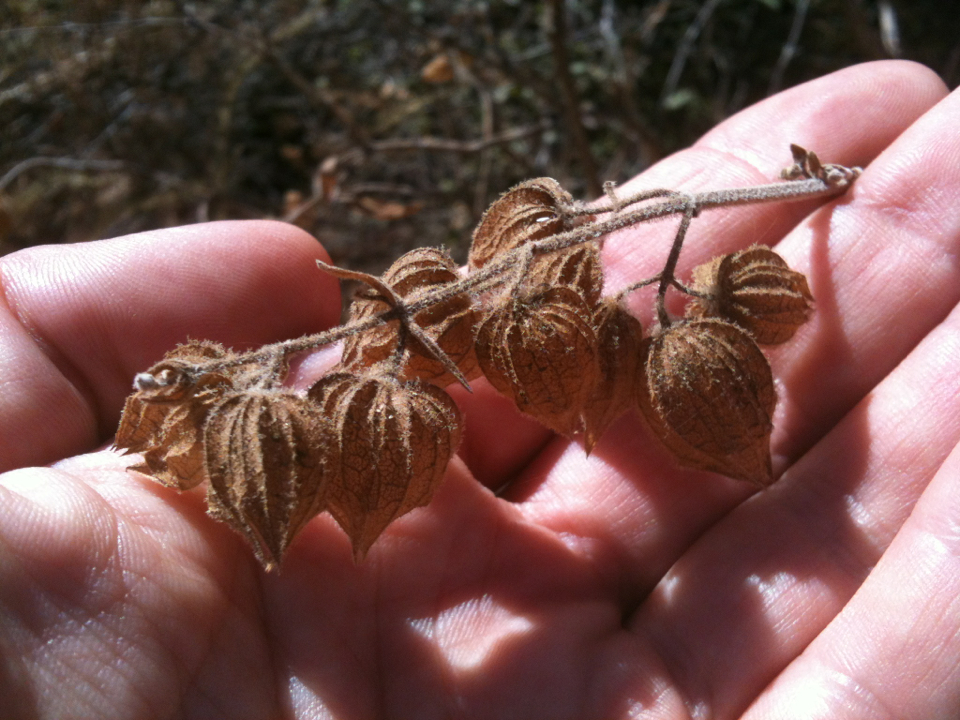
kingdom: Plantae
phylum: Tracheophyta
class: Magnoliopsida
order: Lamiales
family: Lamiaceae
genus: Lepechinia
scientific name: Lepechinia calycina
